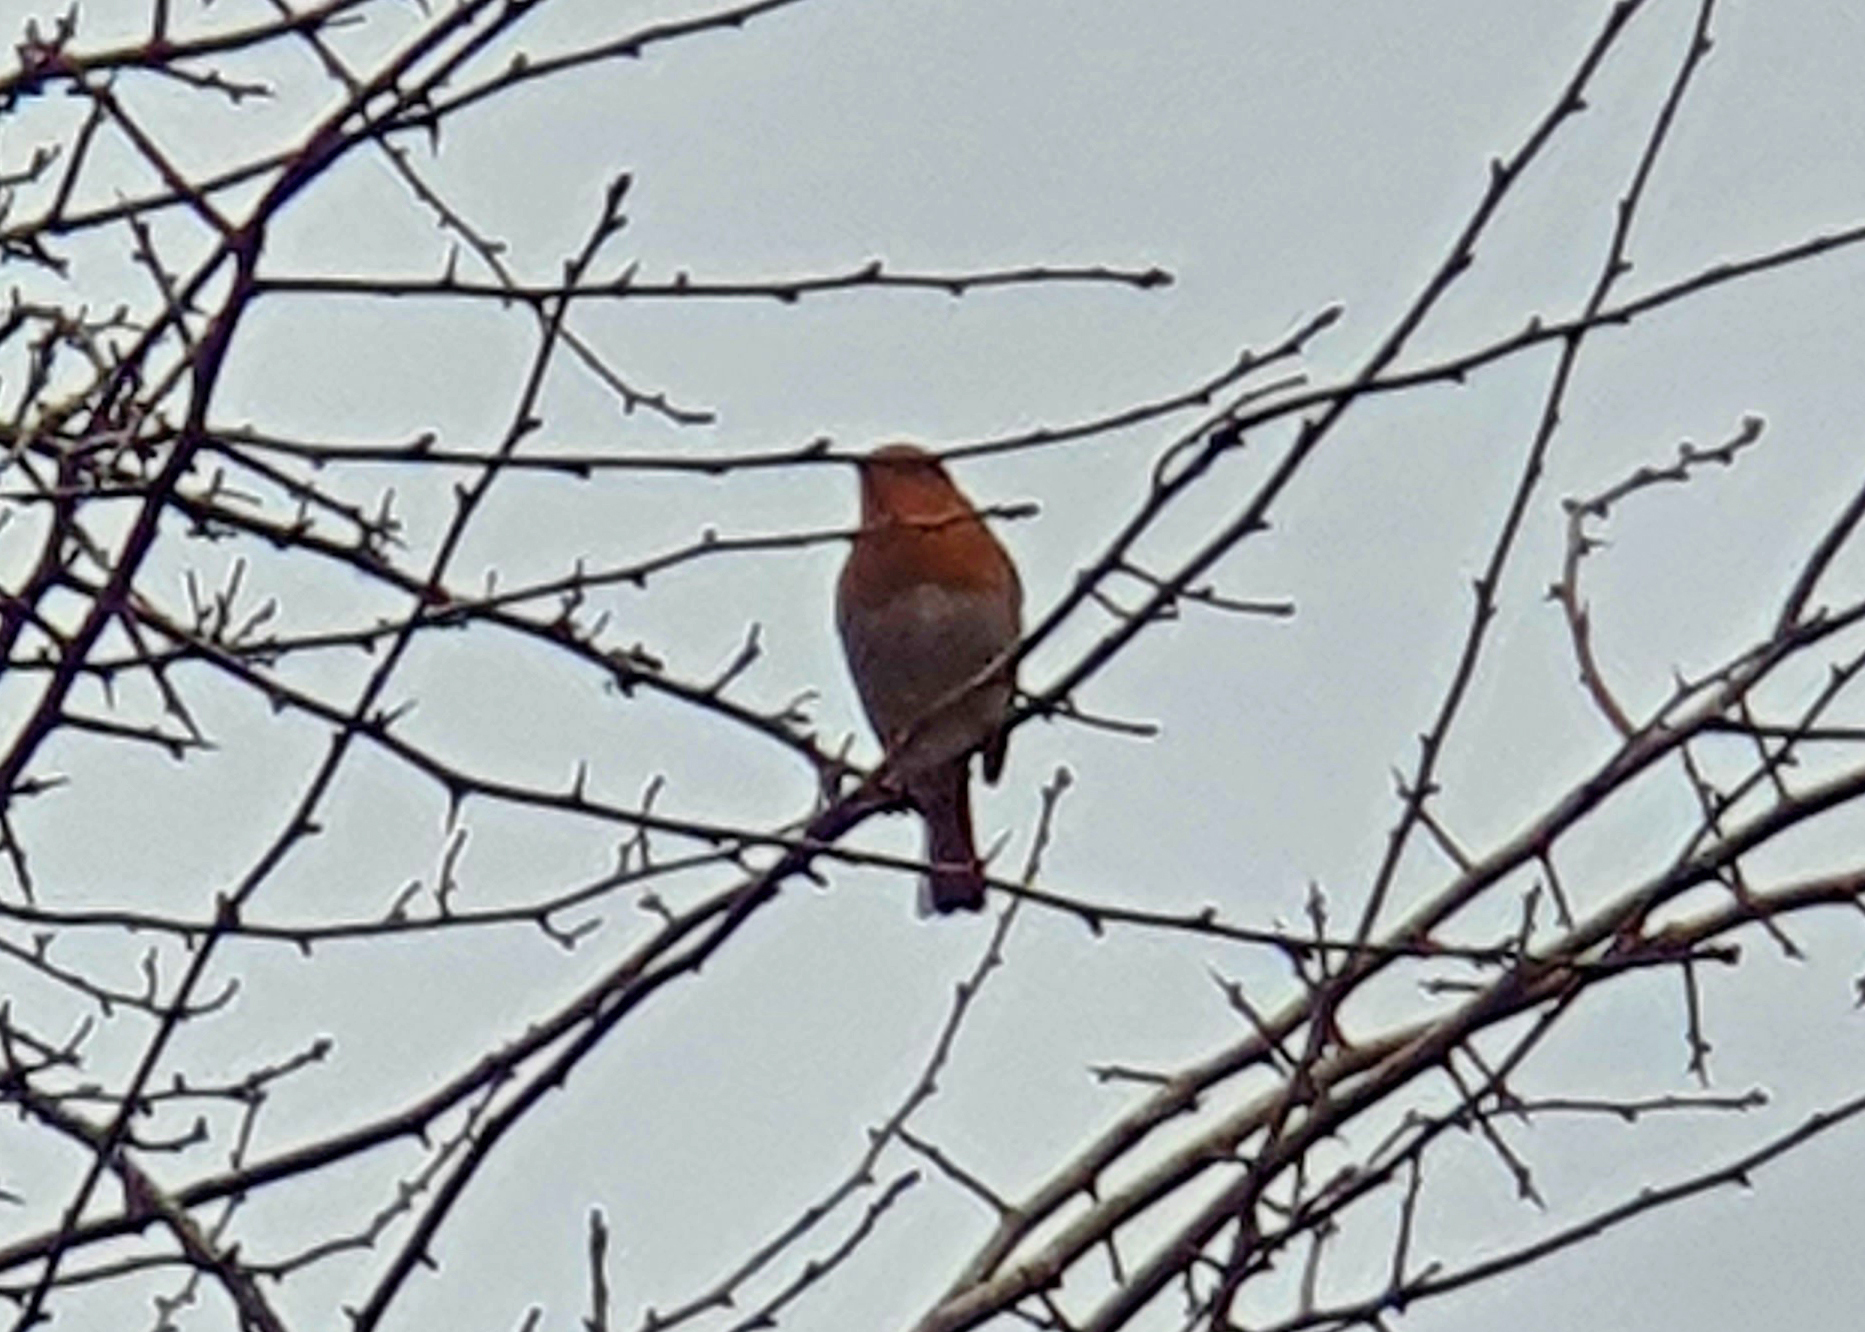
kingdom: Animalia
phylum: Chordata
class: Aves
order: Passeriformes
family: Muscicapidae
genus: Erithacus
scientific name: Erithacus rubecula
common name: European robin
